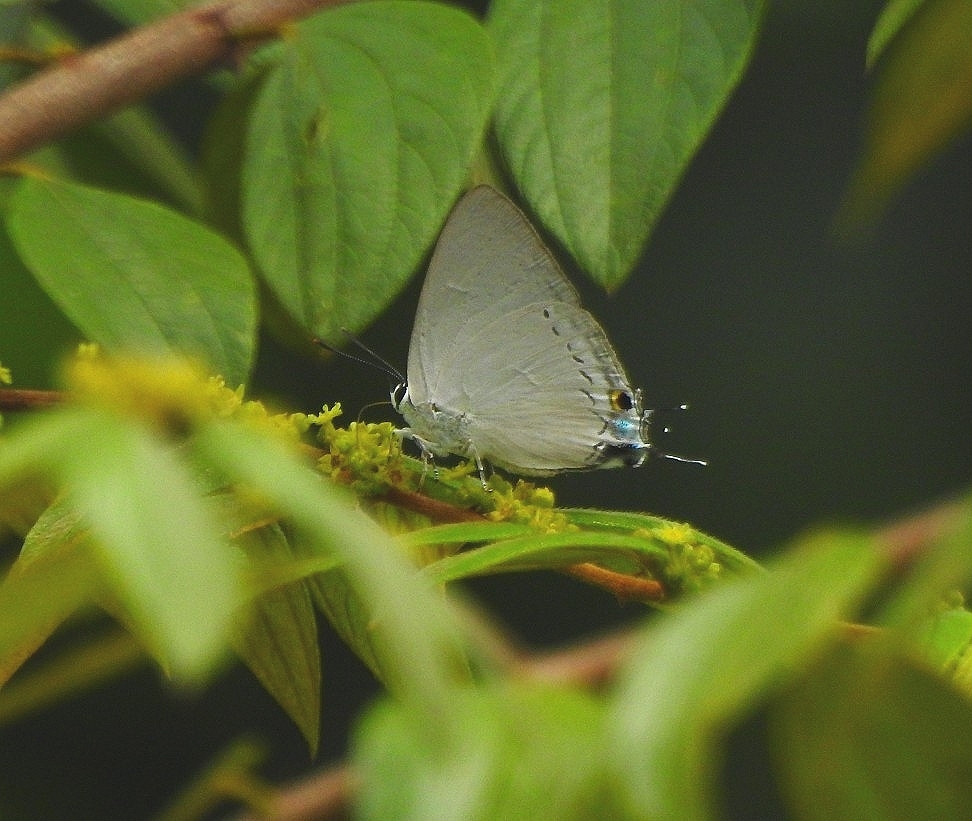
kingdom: Animalia
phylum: Arthropoda
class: Insecta
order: Lepidoptera
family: Lycaenidae
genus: Tajuria
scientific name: Tajuria cippus
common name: Peacock royal
